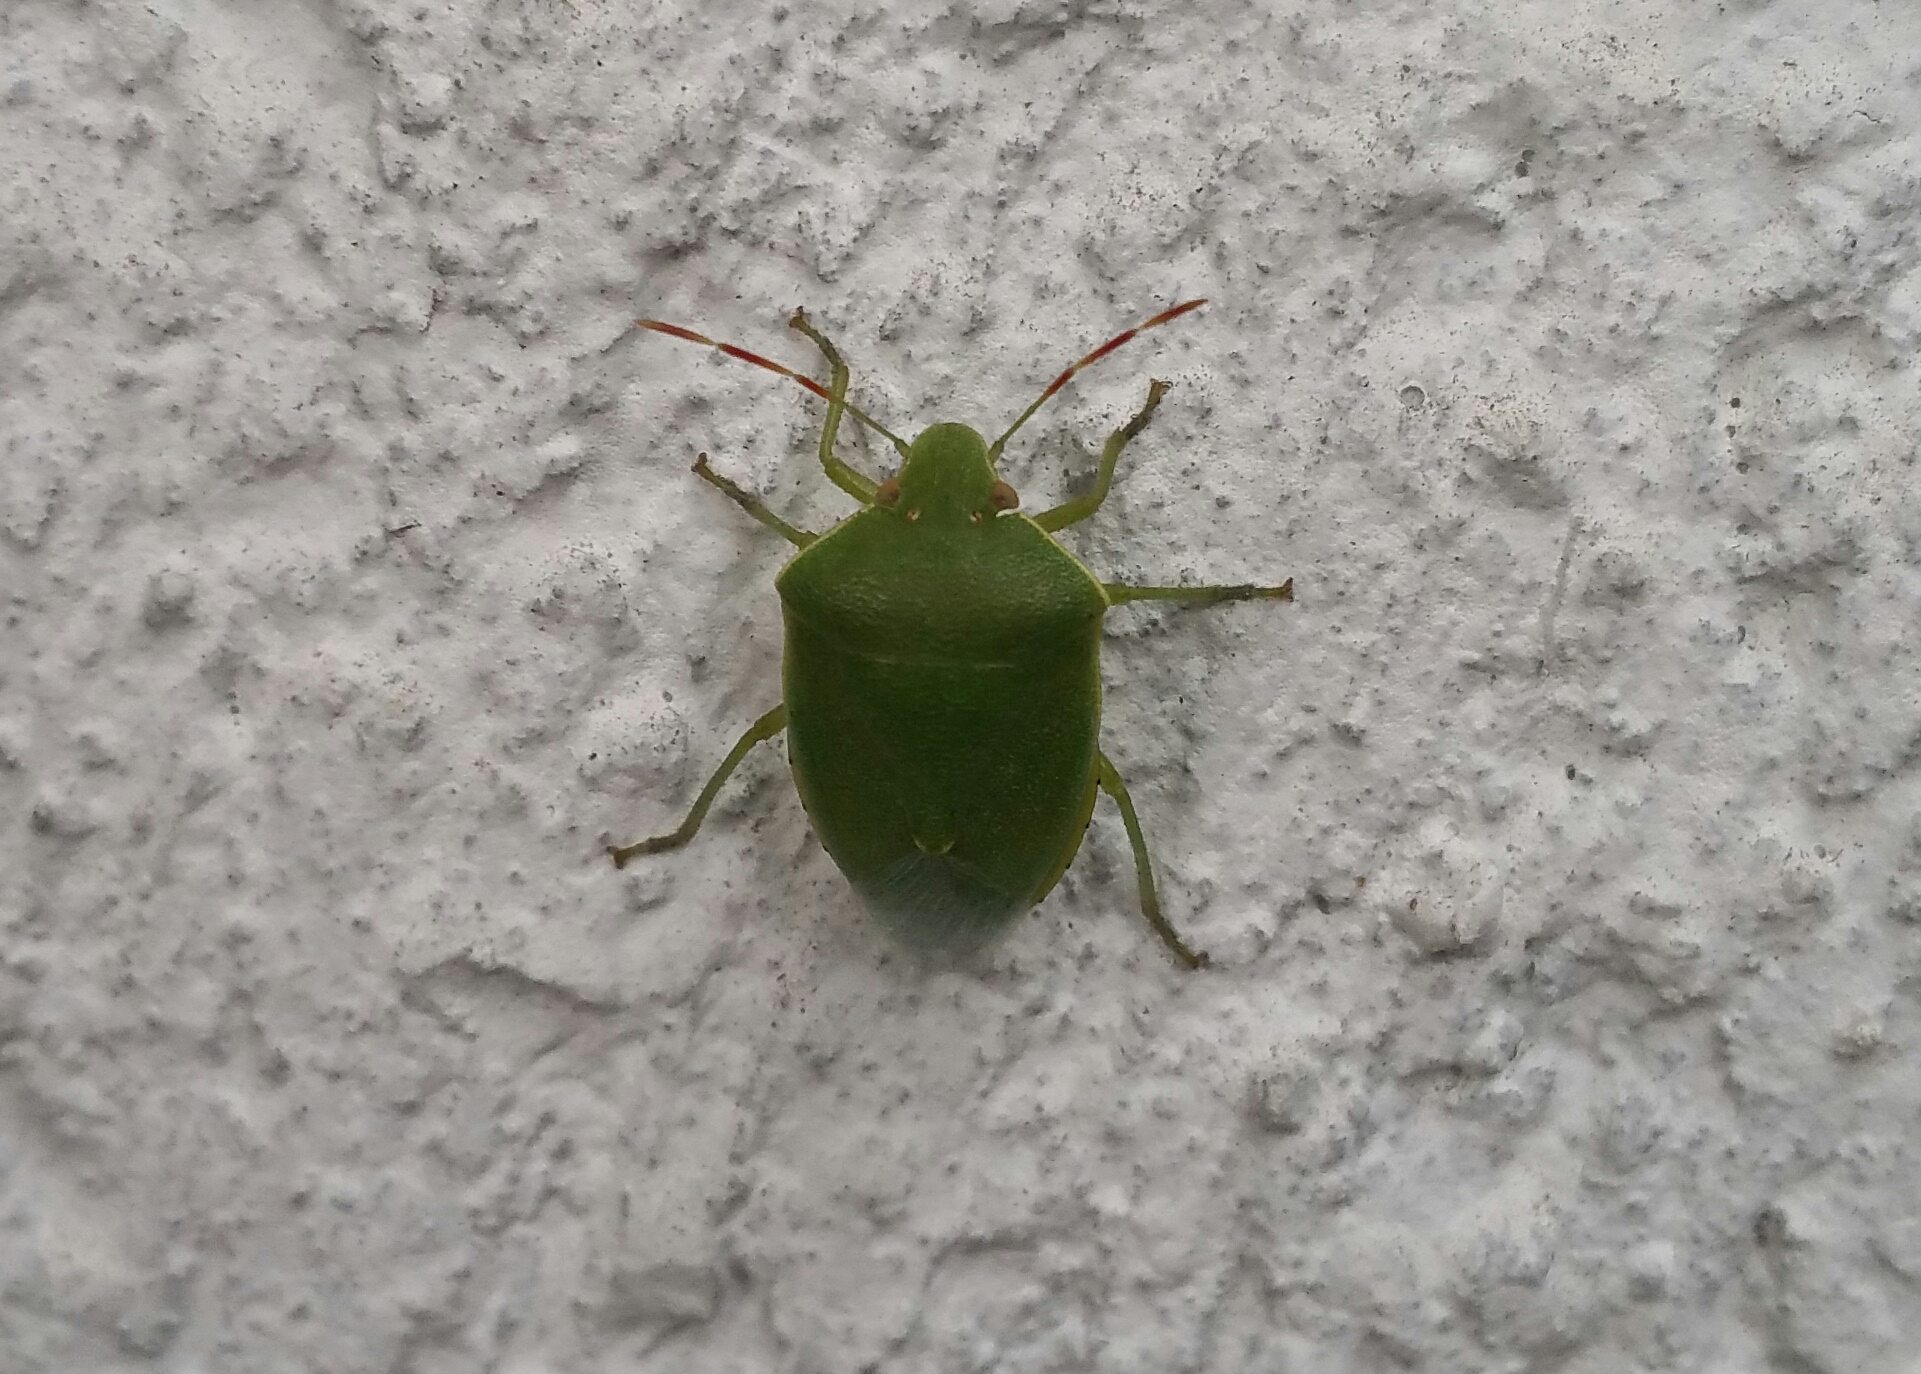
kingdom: Animalia
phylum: Arthropoda
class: Insecta
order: Hemiptera
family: Pentatomidae
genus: Acrosternum
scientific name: Acrosternum heegeri
